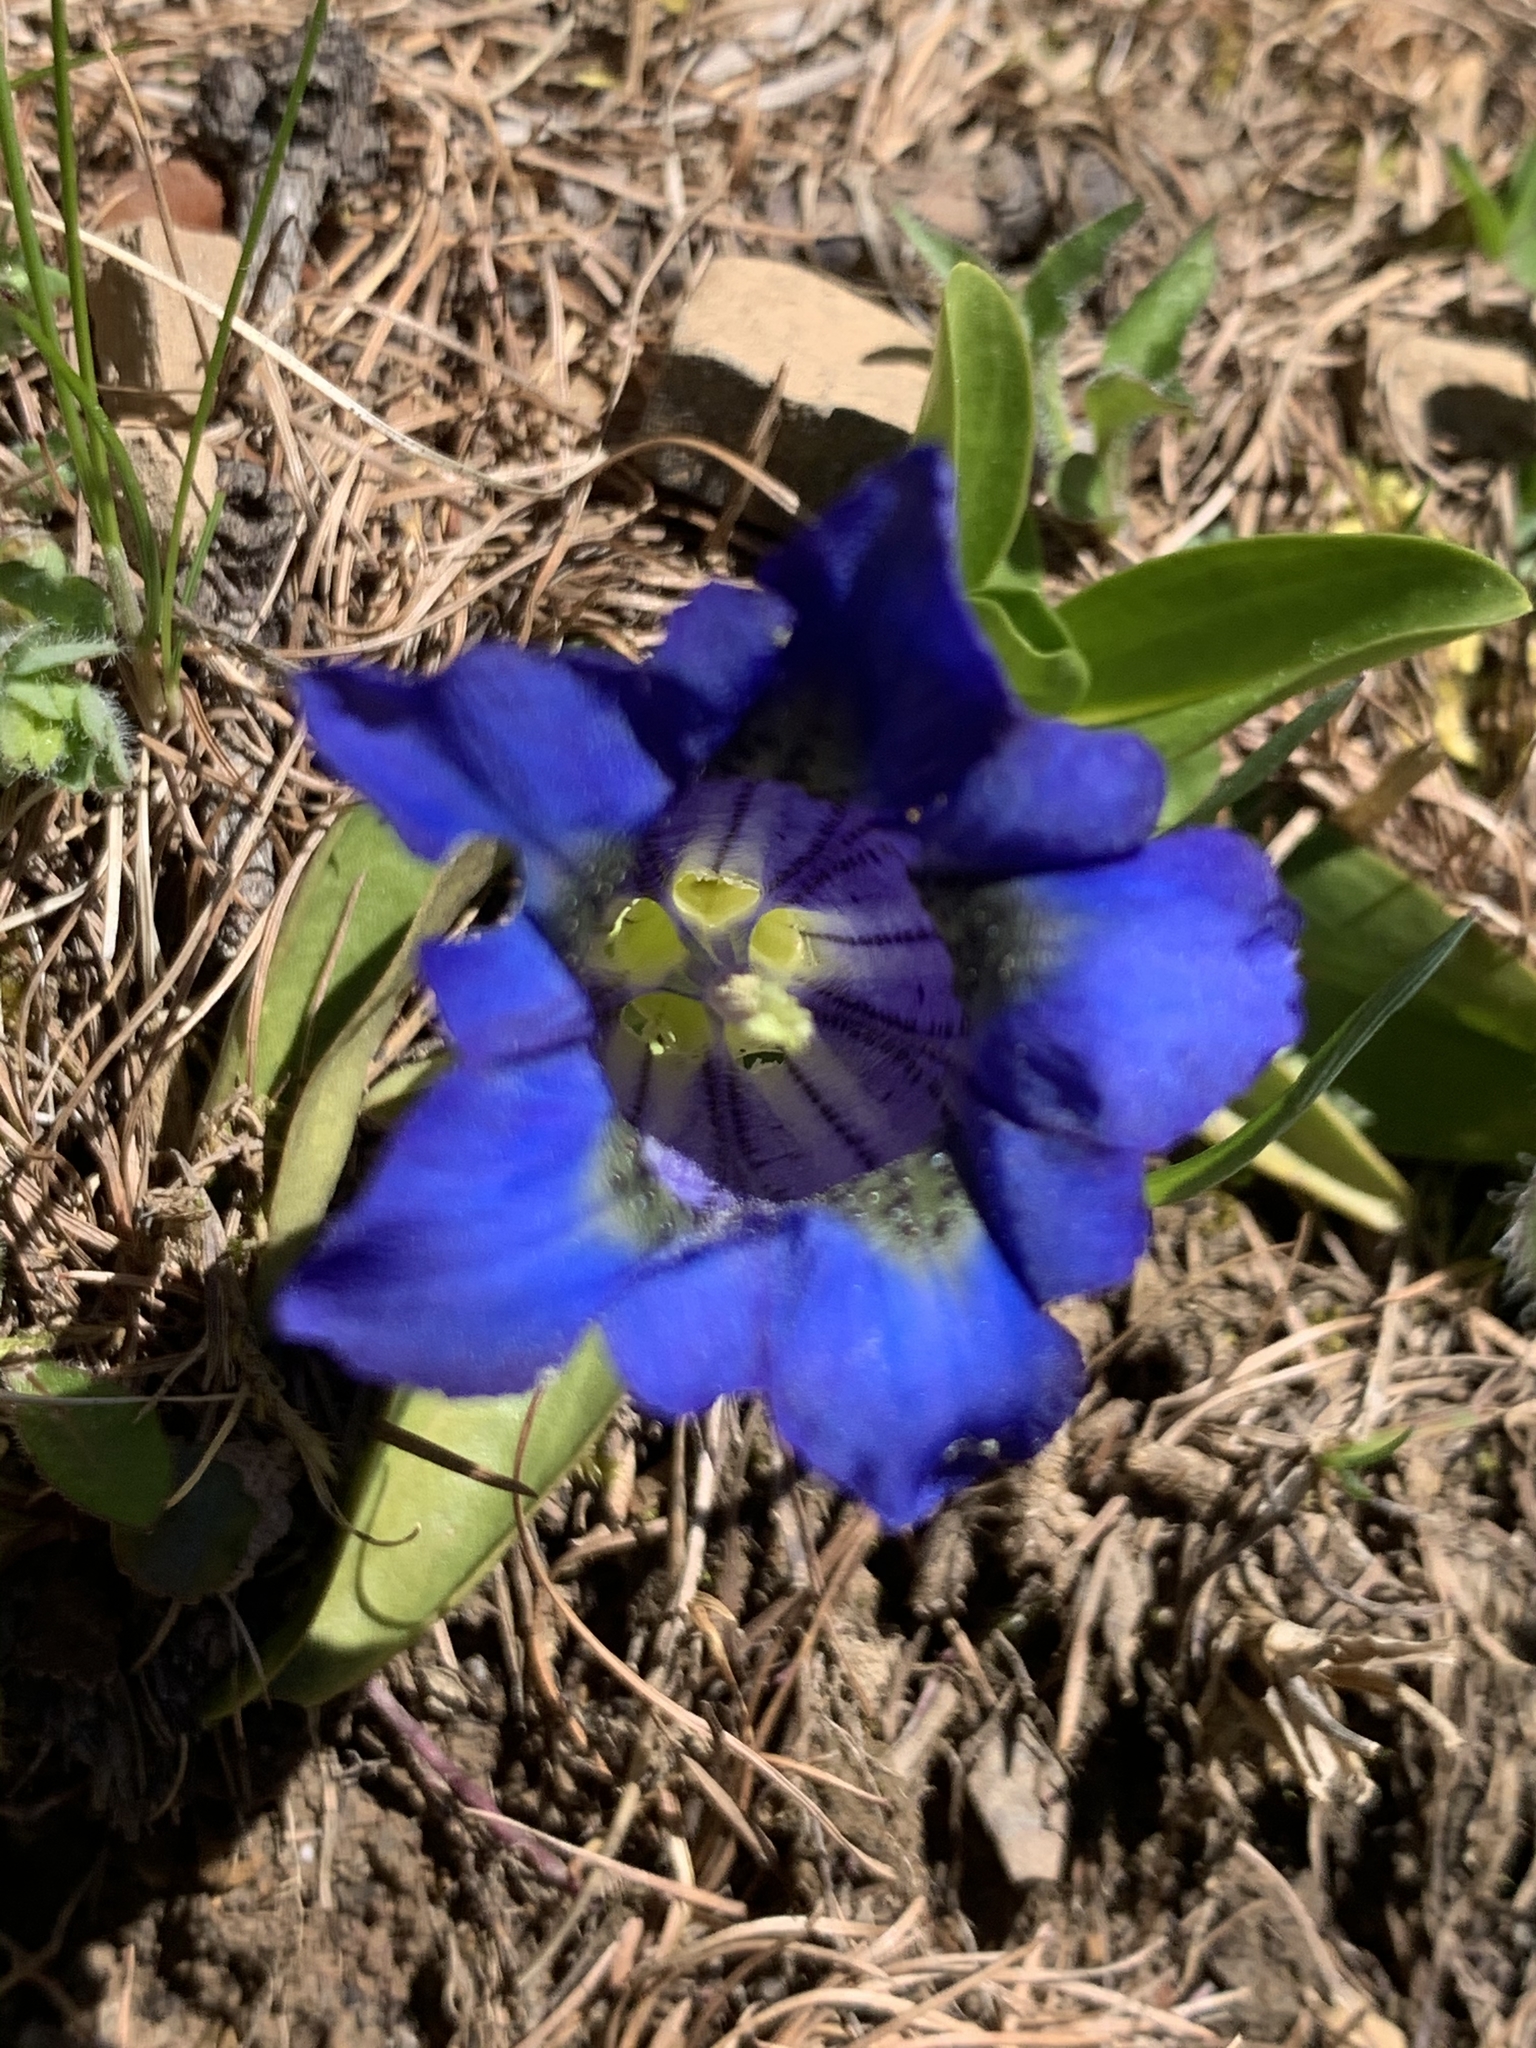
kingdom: Plantae
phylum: Tracheophyta
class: Magnoliopsida
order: Gentianales
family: Gentianaceae
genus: Gentiana
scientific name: Gentiana acaulis
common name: Trumpet gentian
